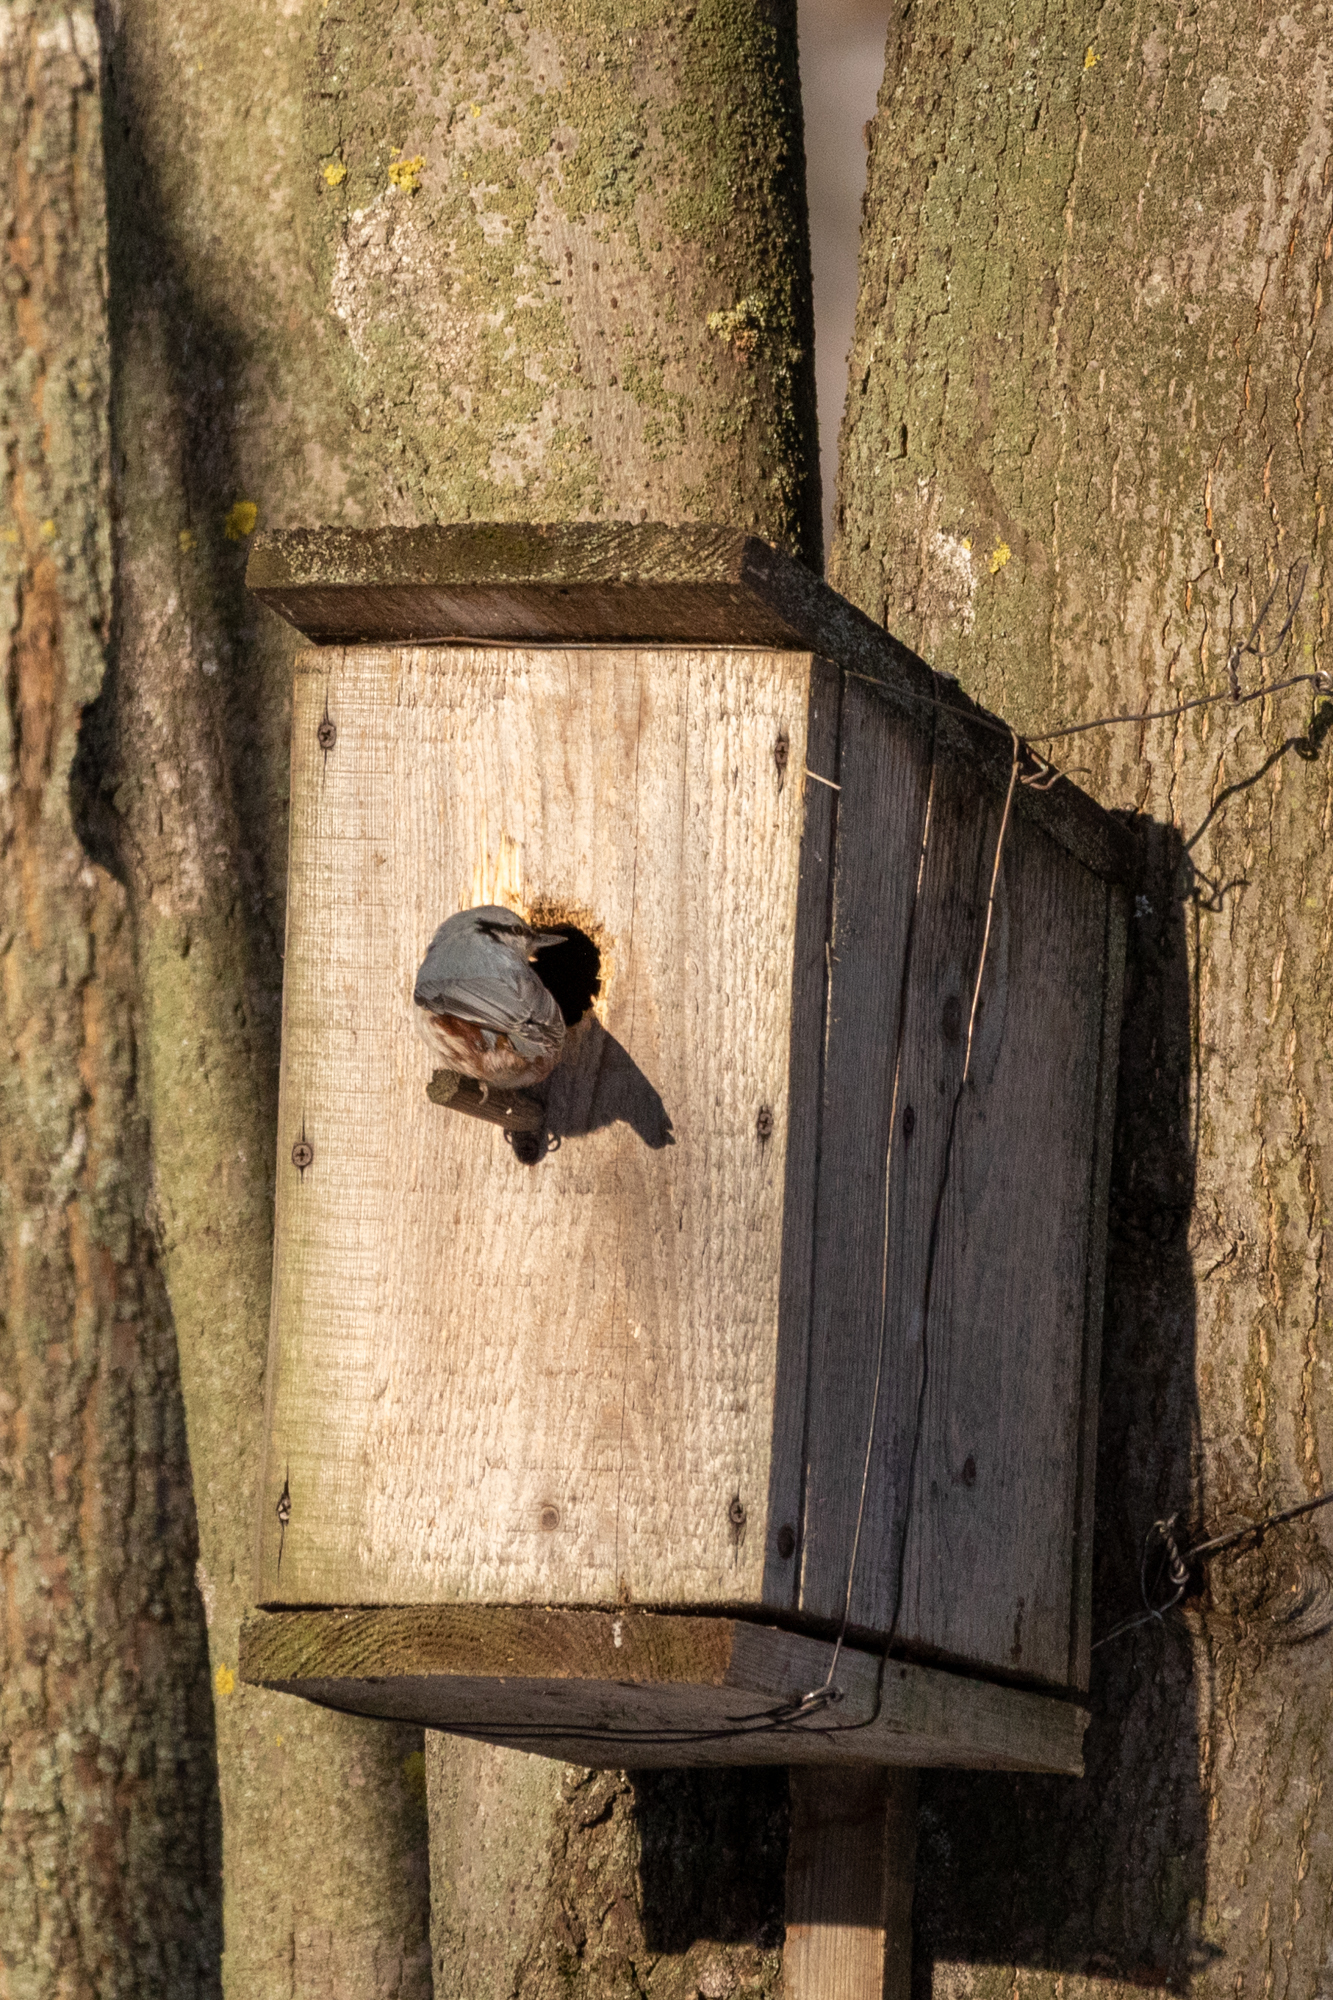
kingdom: Animalia
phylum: Chordata
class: Aves
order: Passeriformes
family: Sittidae
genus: Sitta
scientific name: Sitta europaea
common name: Eurasian nuthatch
